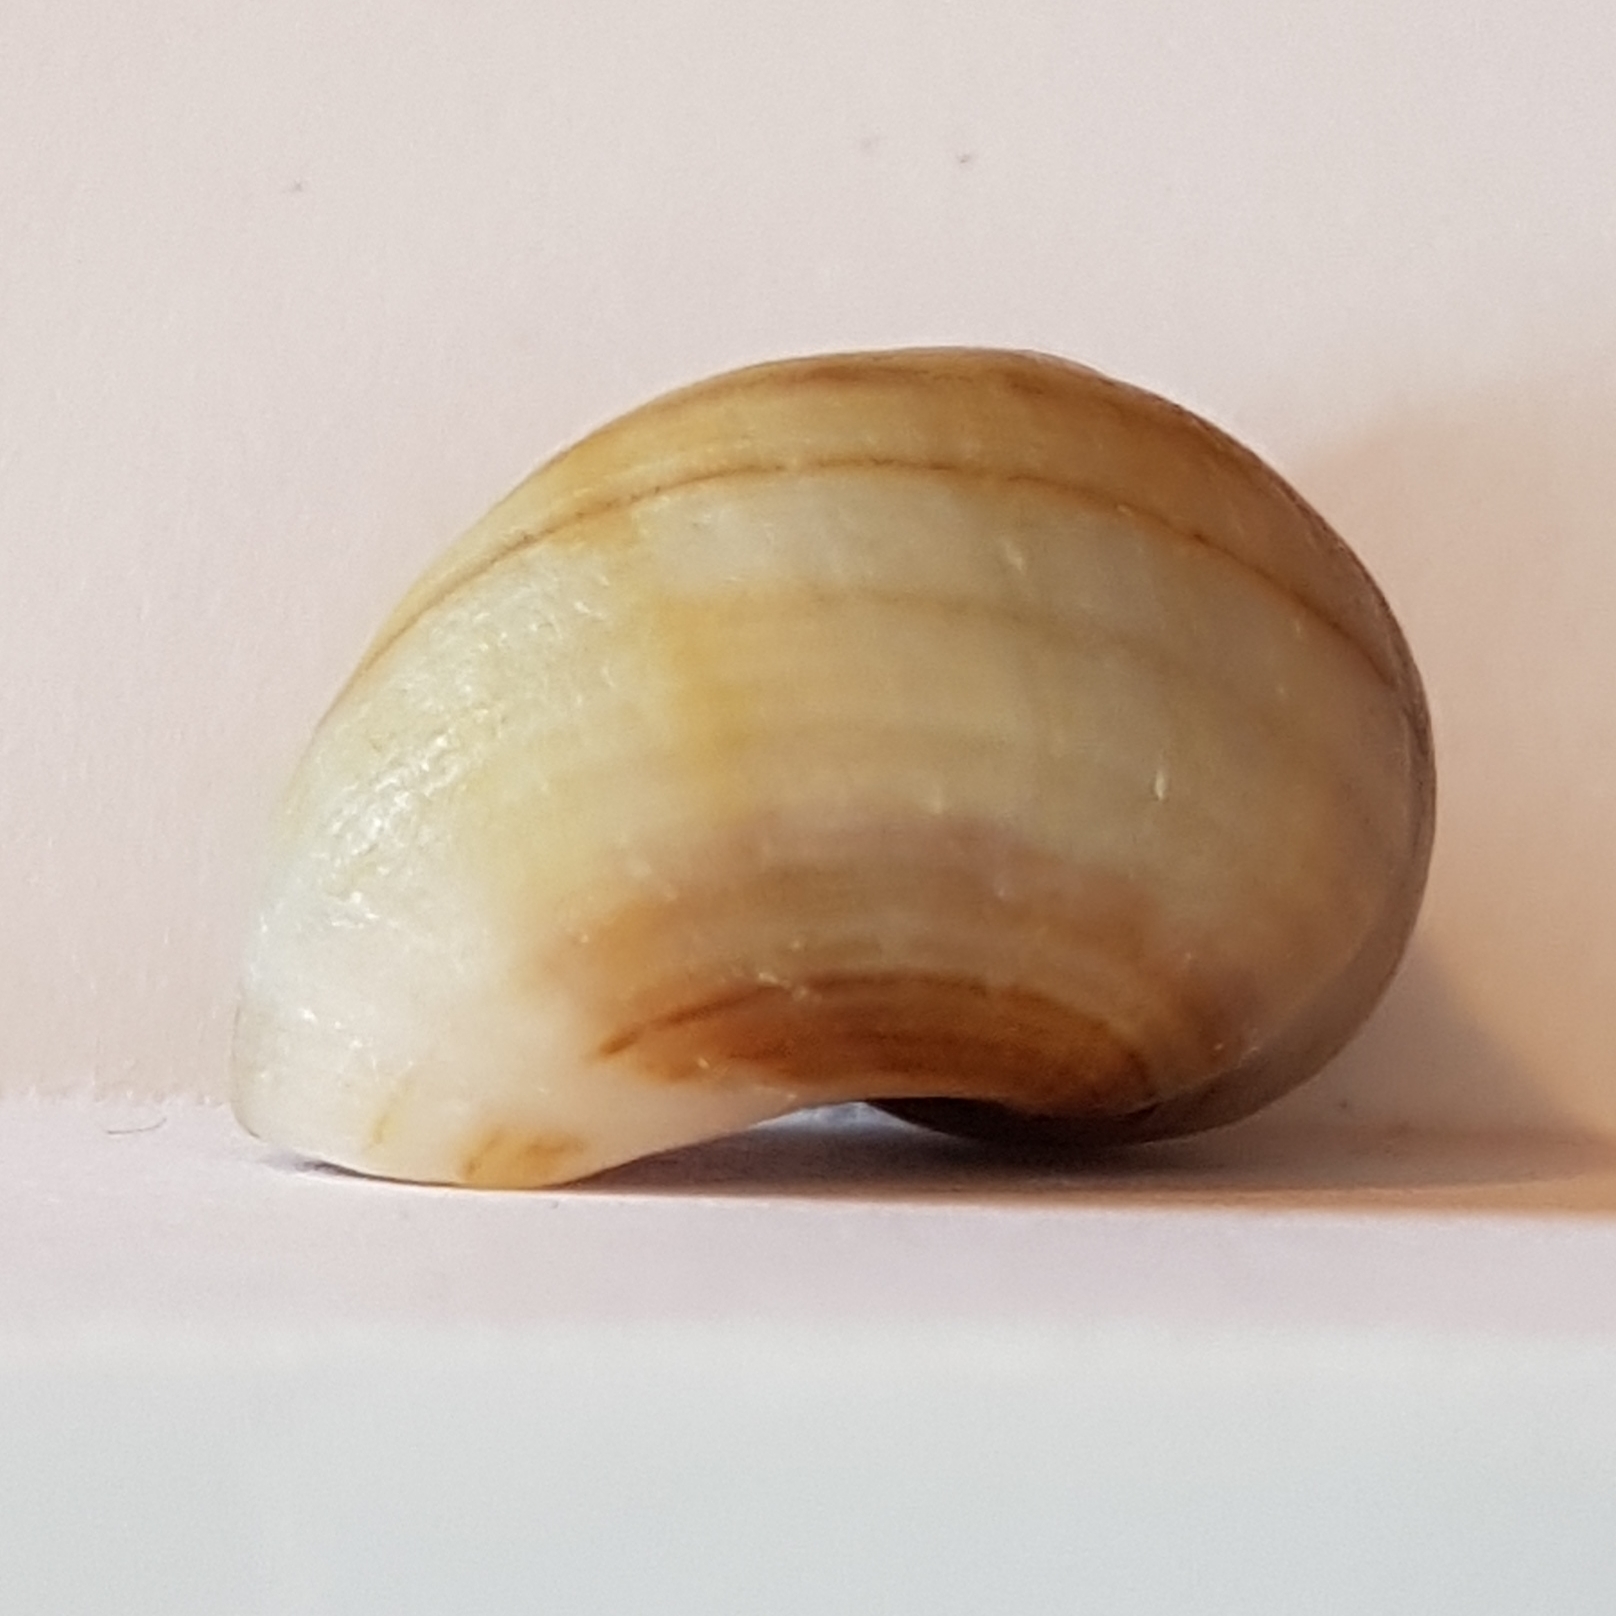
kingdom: Animalia
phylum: Mollusca
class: Gastropoda
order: Littorinimorpha
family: Littorinidae
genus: Littorina
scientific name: Littorina littorea
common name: Common periwinkle
